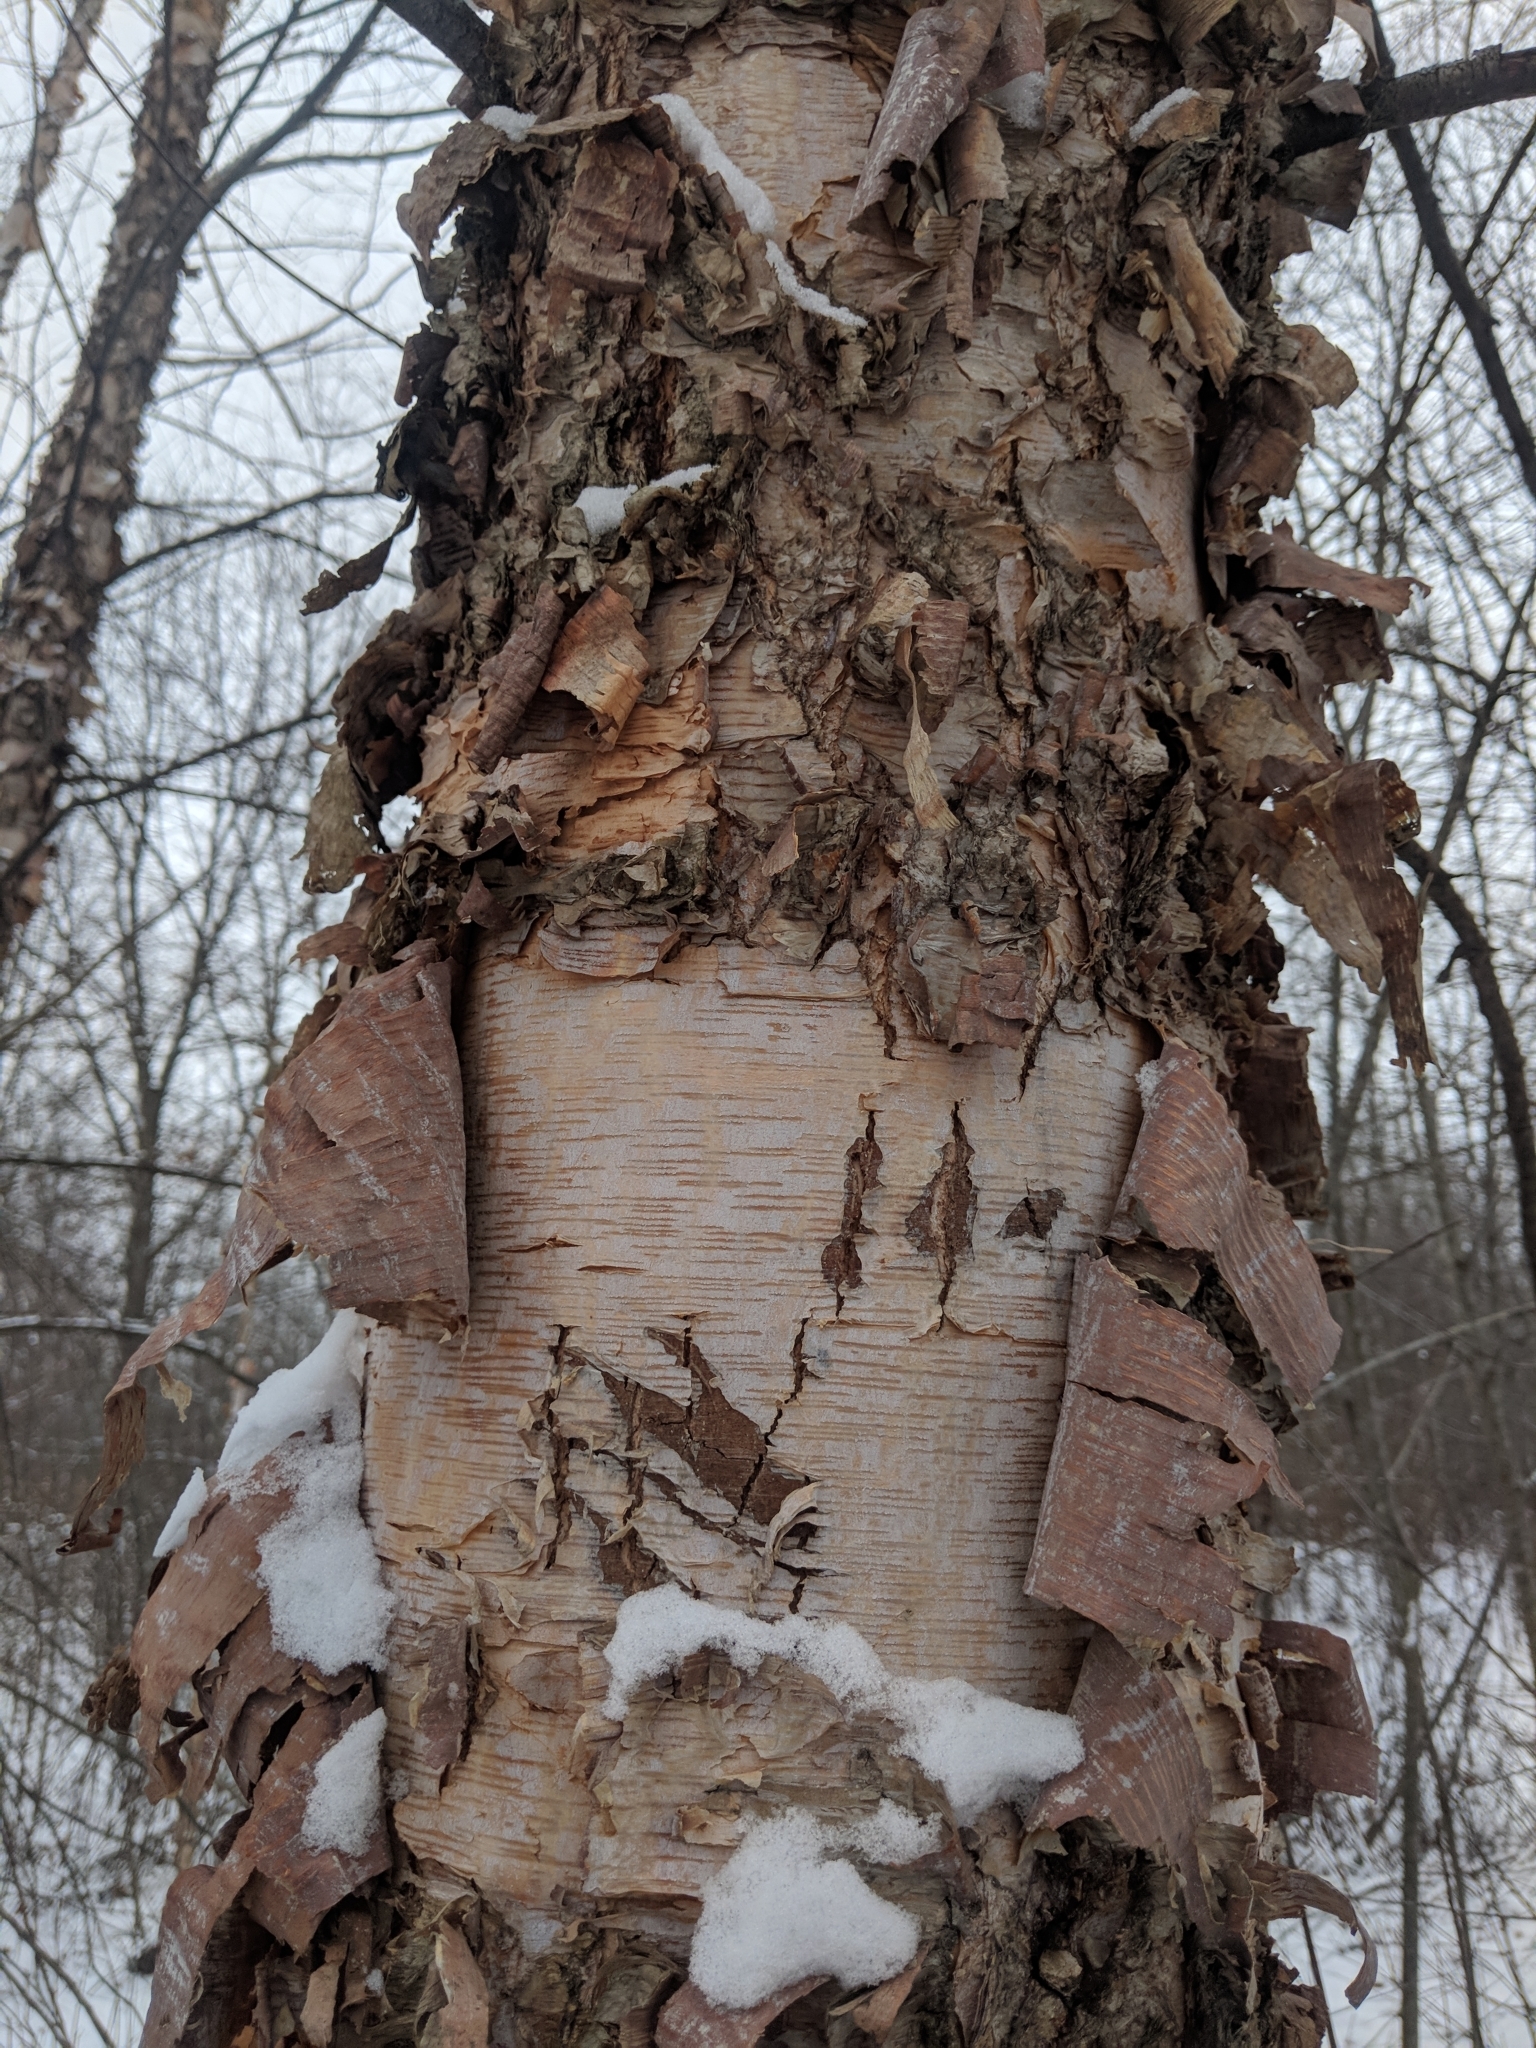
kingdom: Plantae
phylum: Tracheophyta
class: Magnoliopsida
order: Fagales
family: Betulaceae
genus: Betula
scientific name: Betula nigra
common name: Black birch
